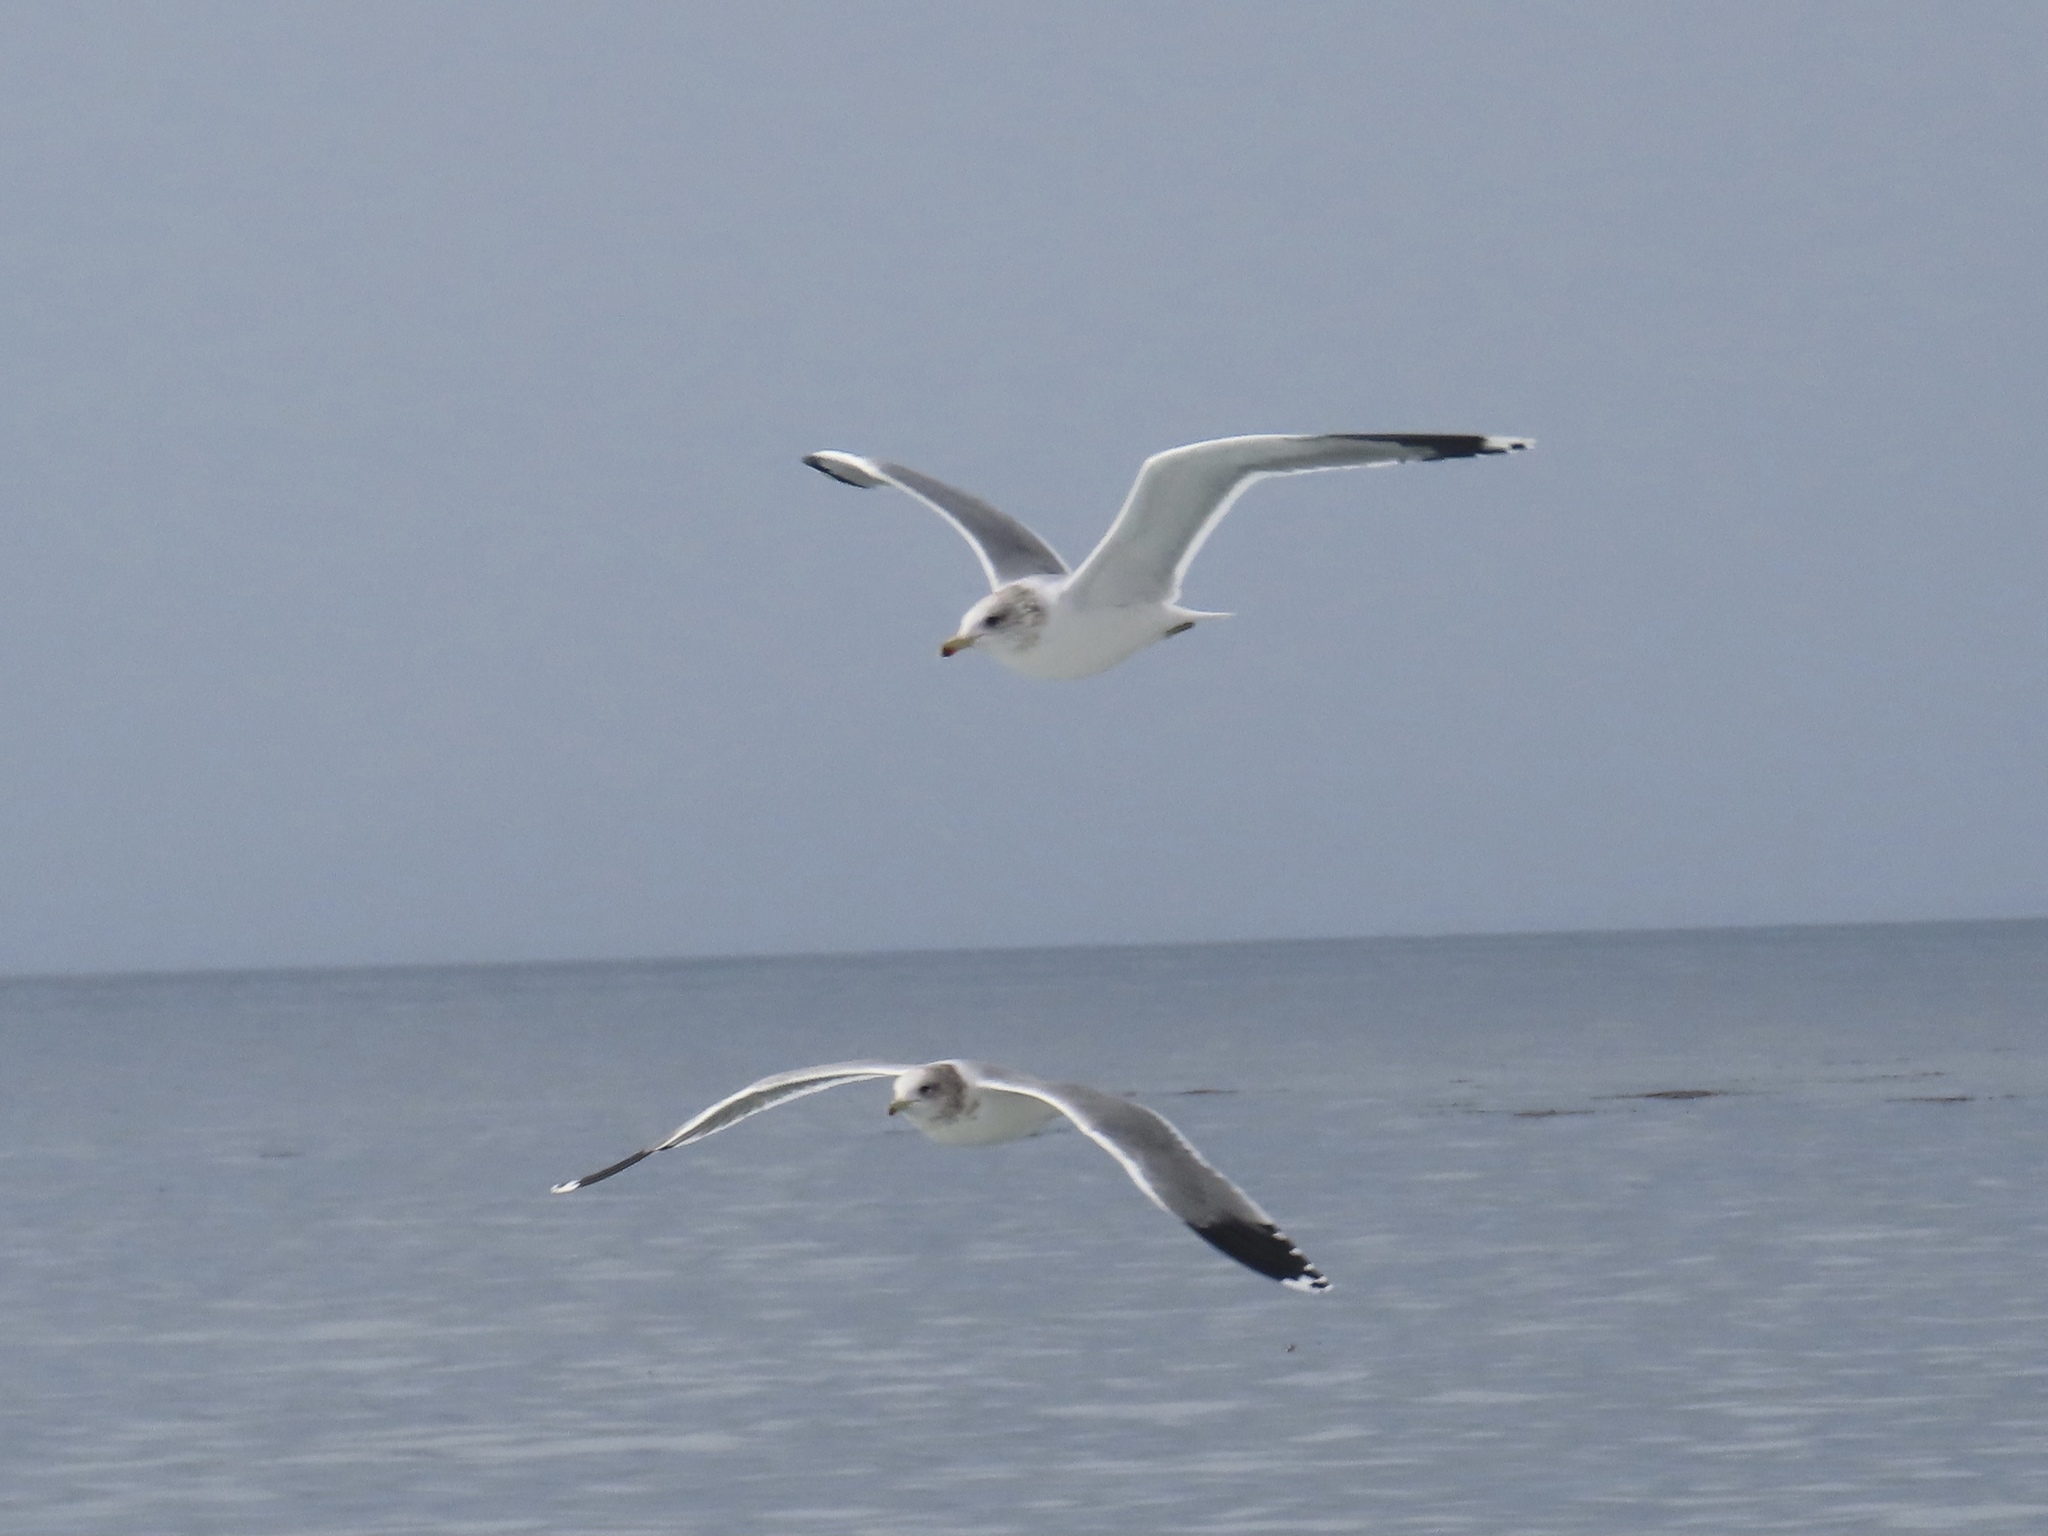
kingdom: Animalia
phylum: Chordata
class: Aves
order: Charadriiformes
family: Laridae
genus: Larus
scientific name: Larus californicus
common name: California gull
